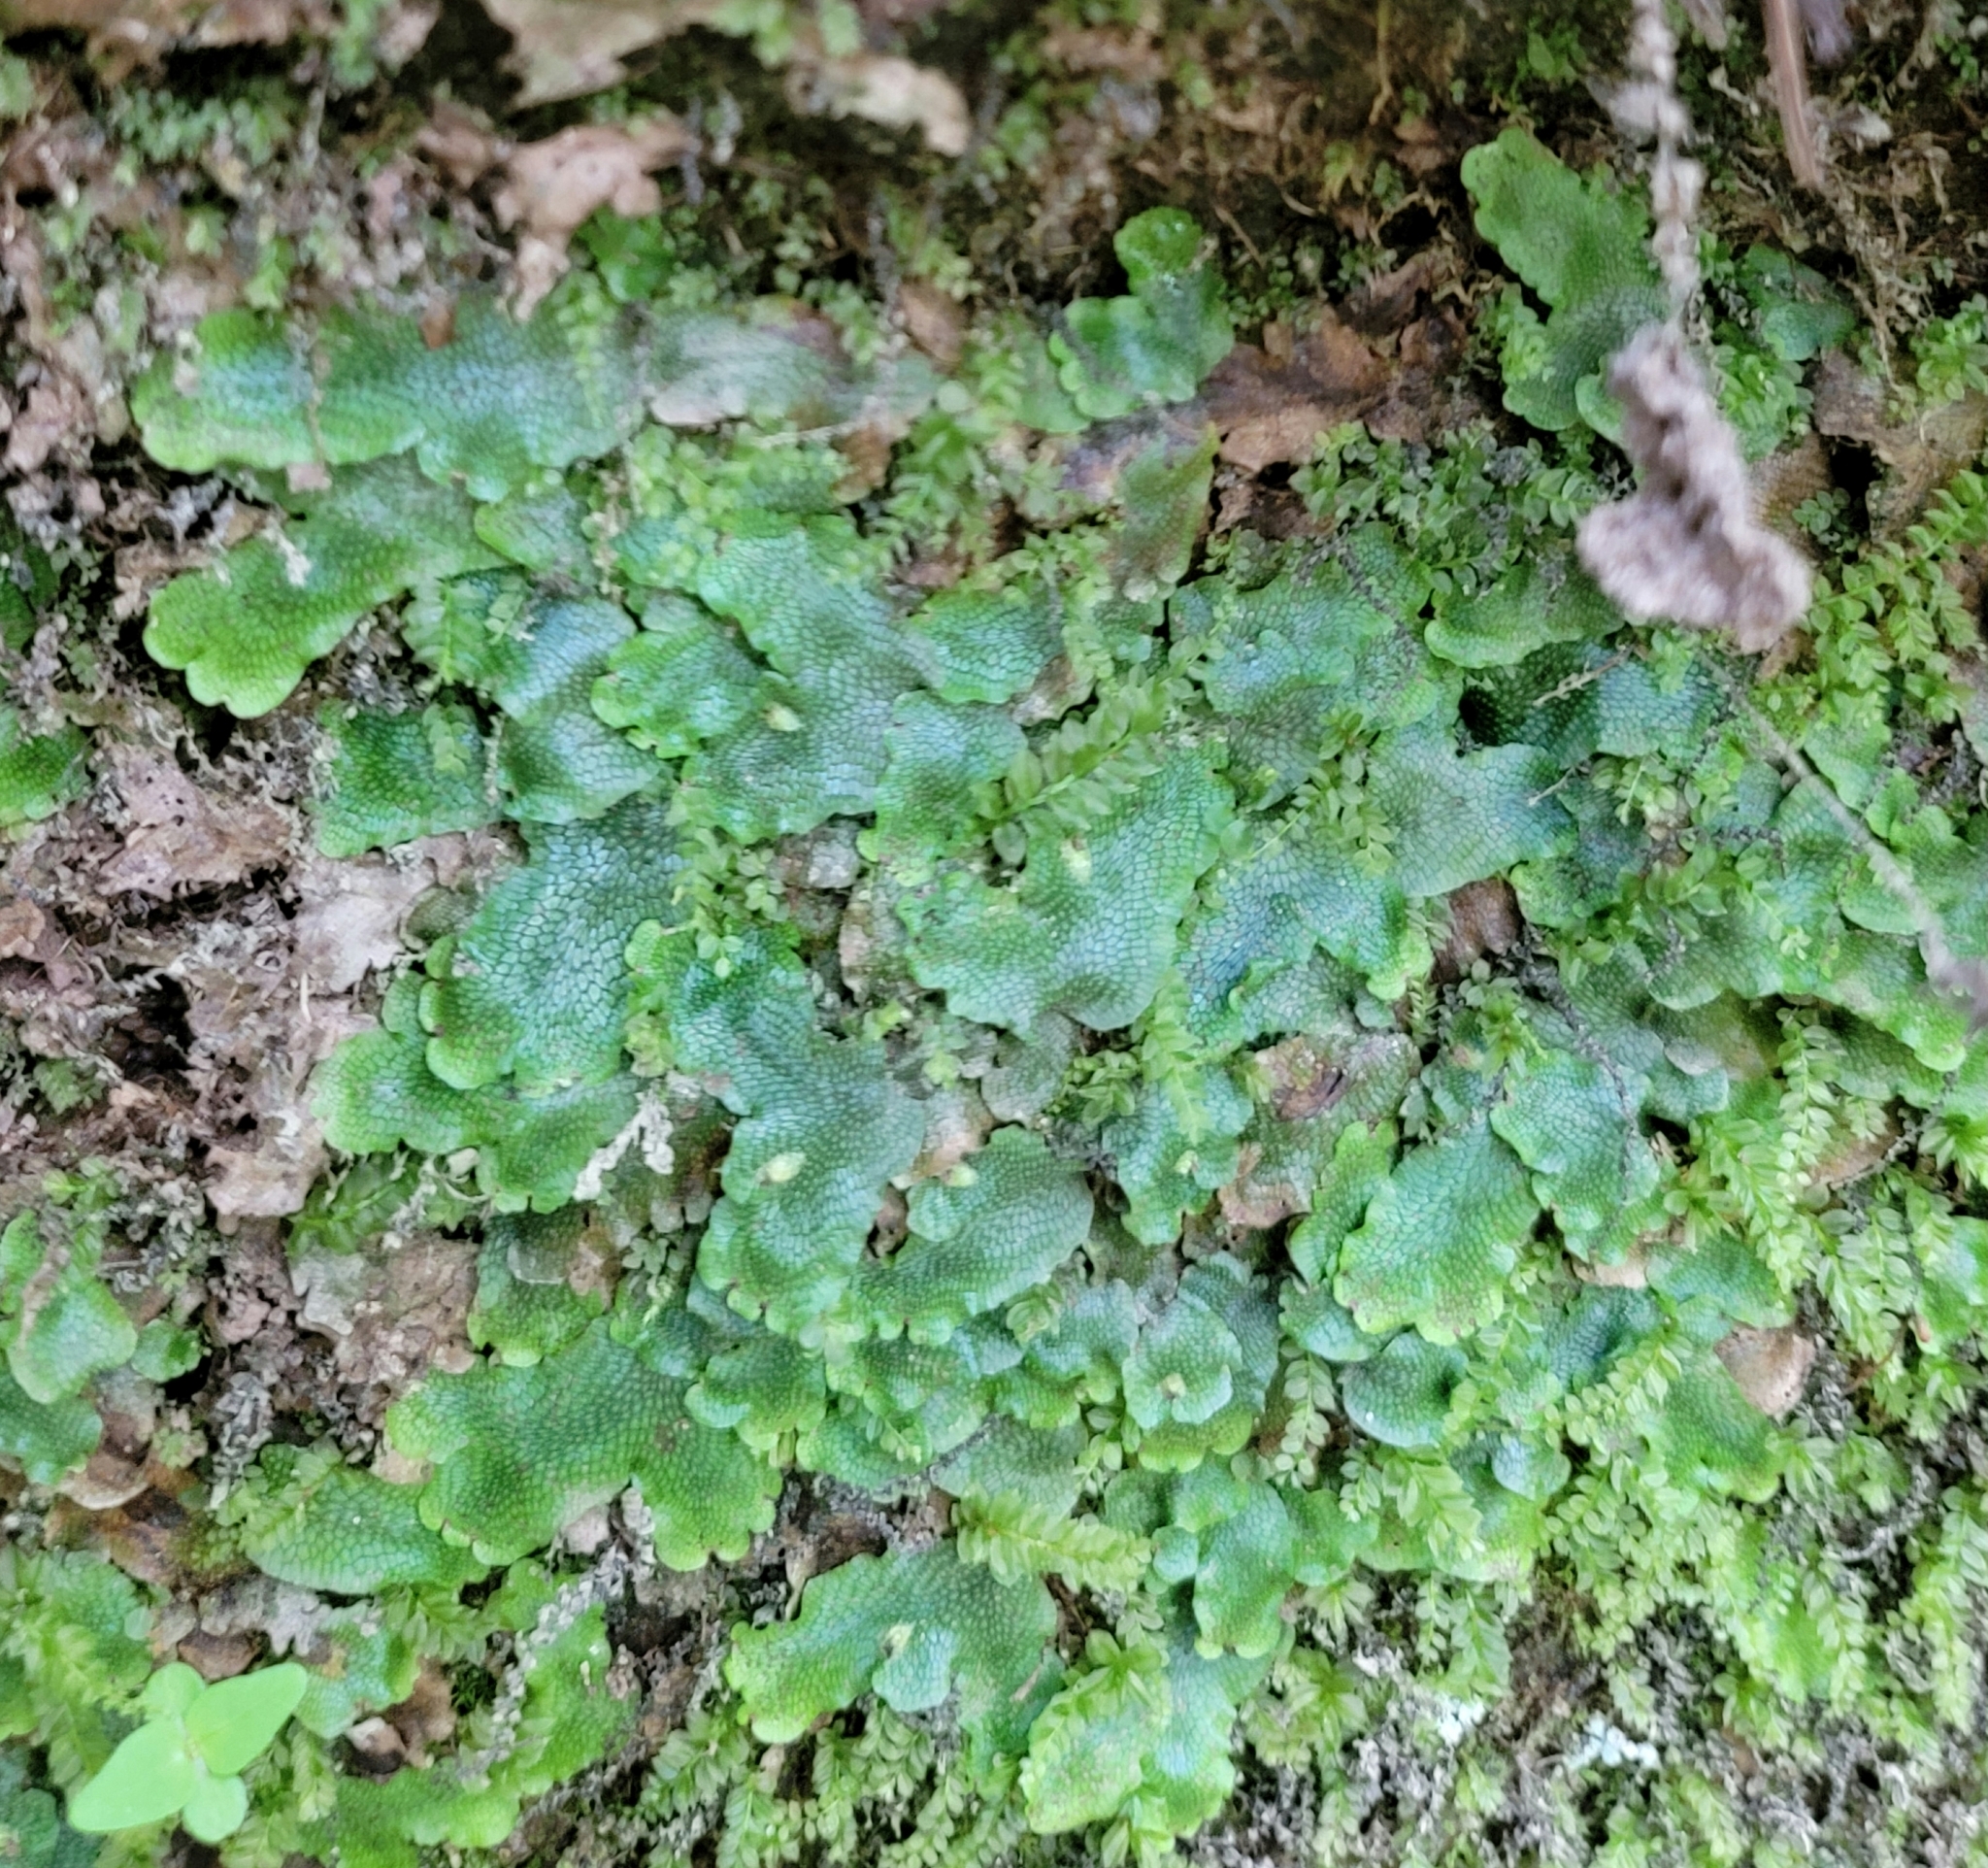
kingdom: Plantae
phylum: Marchantiophyta
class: Marchantiopsida
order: Marchantiales
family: Conocephalaceae
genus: Conocephalum
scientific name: Conocephalum salebrosum
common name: Cat-tongue liverwort
